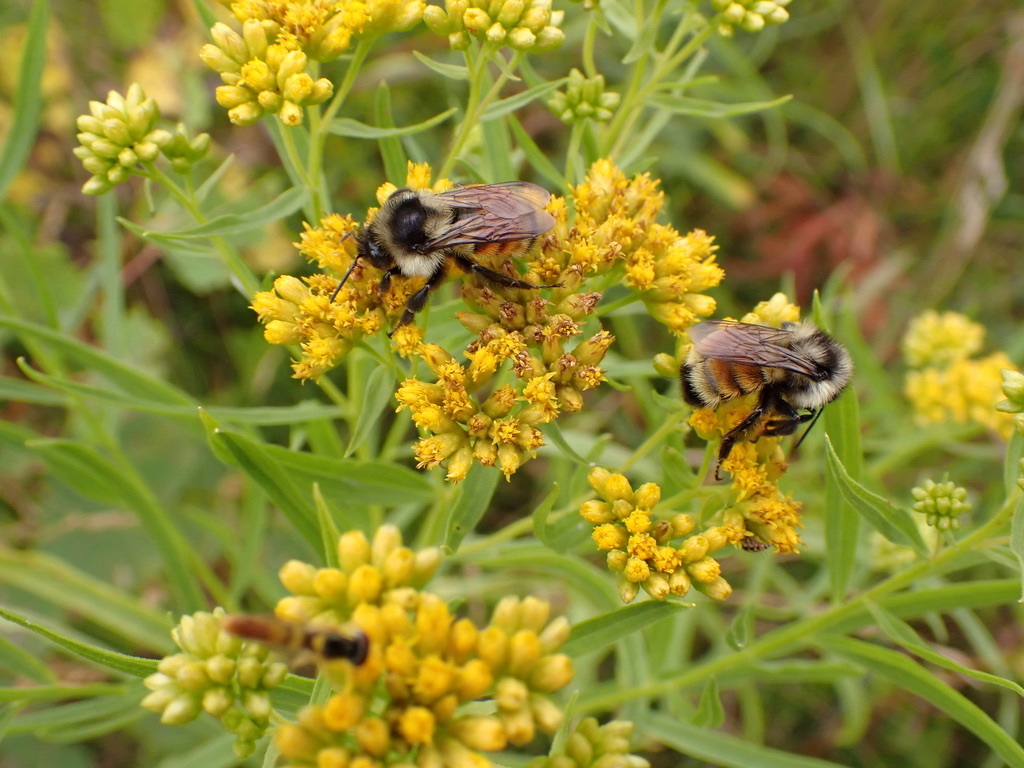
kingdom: Animalia
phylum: Arthropoda
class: Insecta
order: Hymenoptera
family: Apidae
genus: Bombus
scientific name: Bombus ternarius
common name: Tri-colored bumble bee
